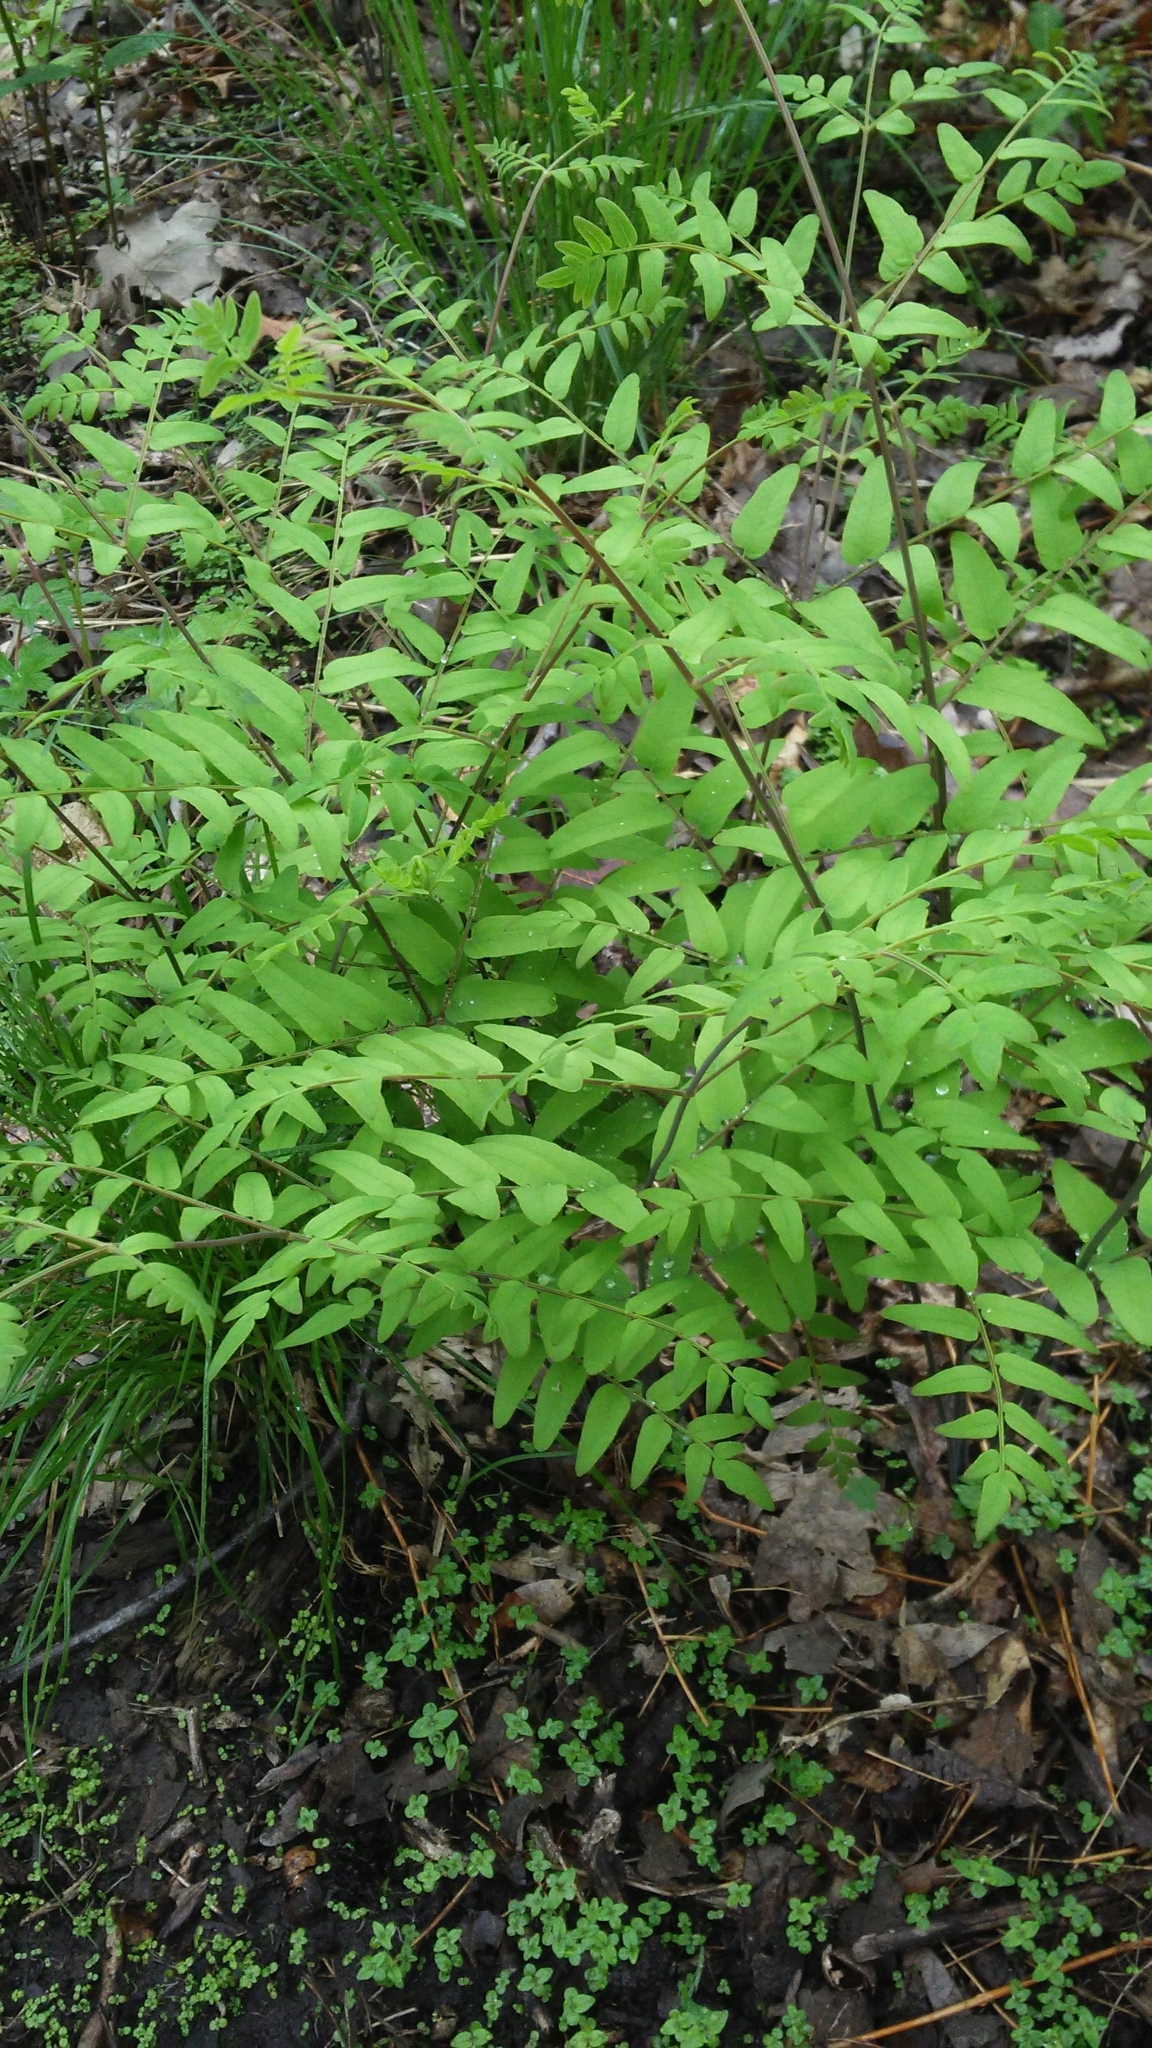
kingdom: Plantae
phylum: Tracheophyta
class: Polypodiopsida
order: Osmundales
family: Osmundaceae
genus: Osmunda
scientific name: Osmunda spectabilis
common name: American royal fern
